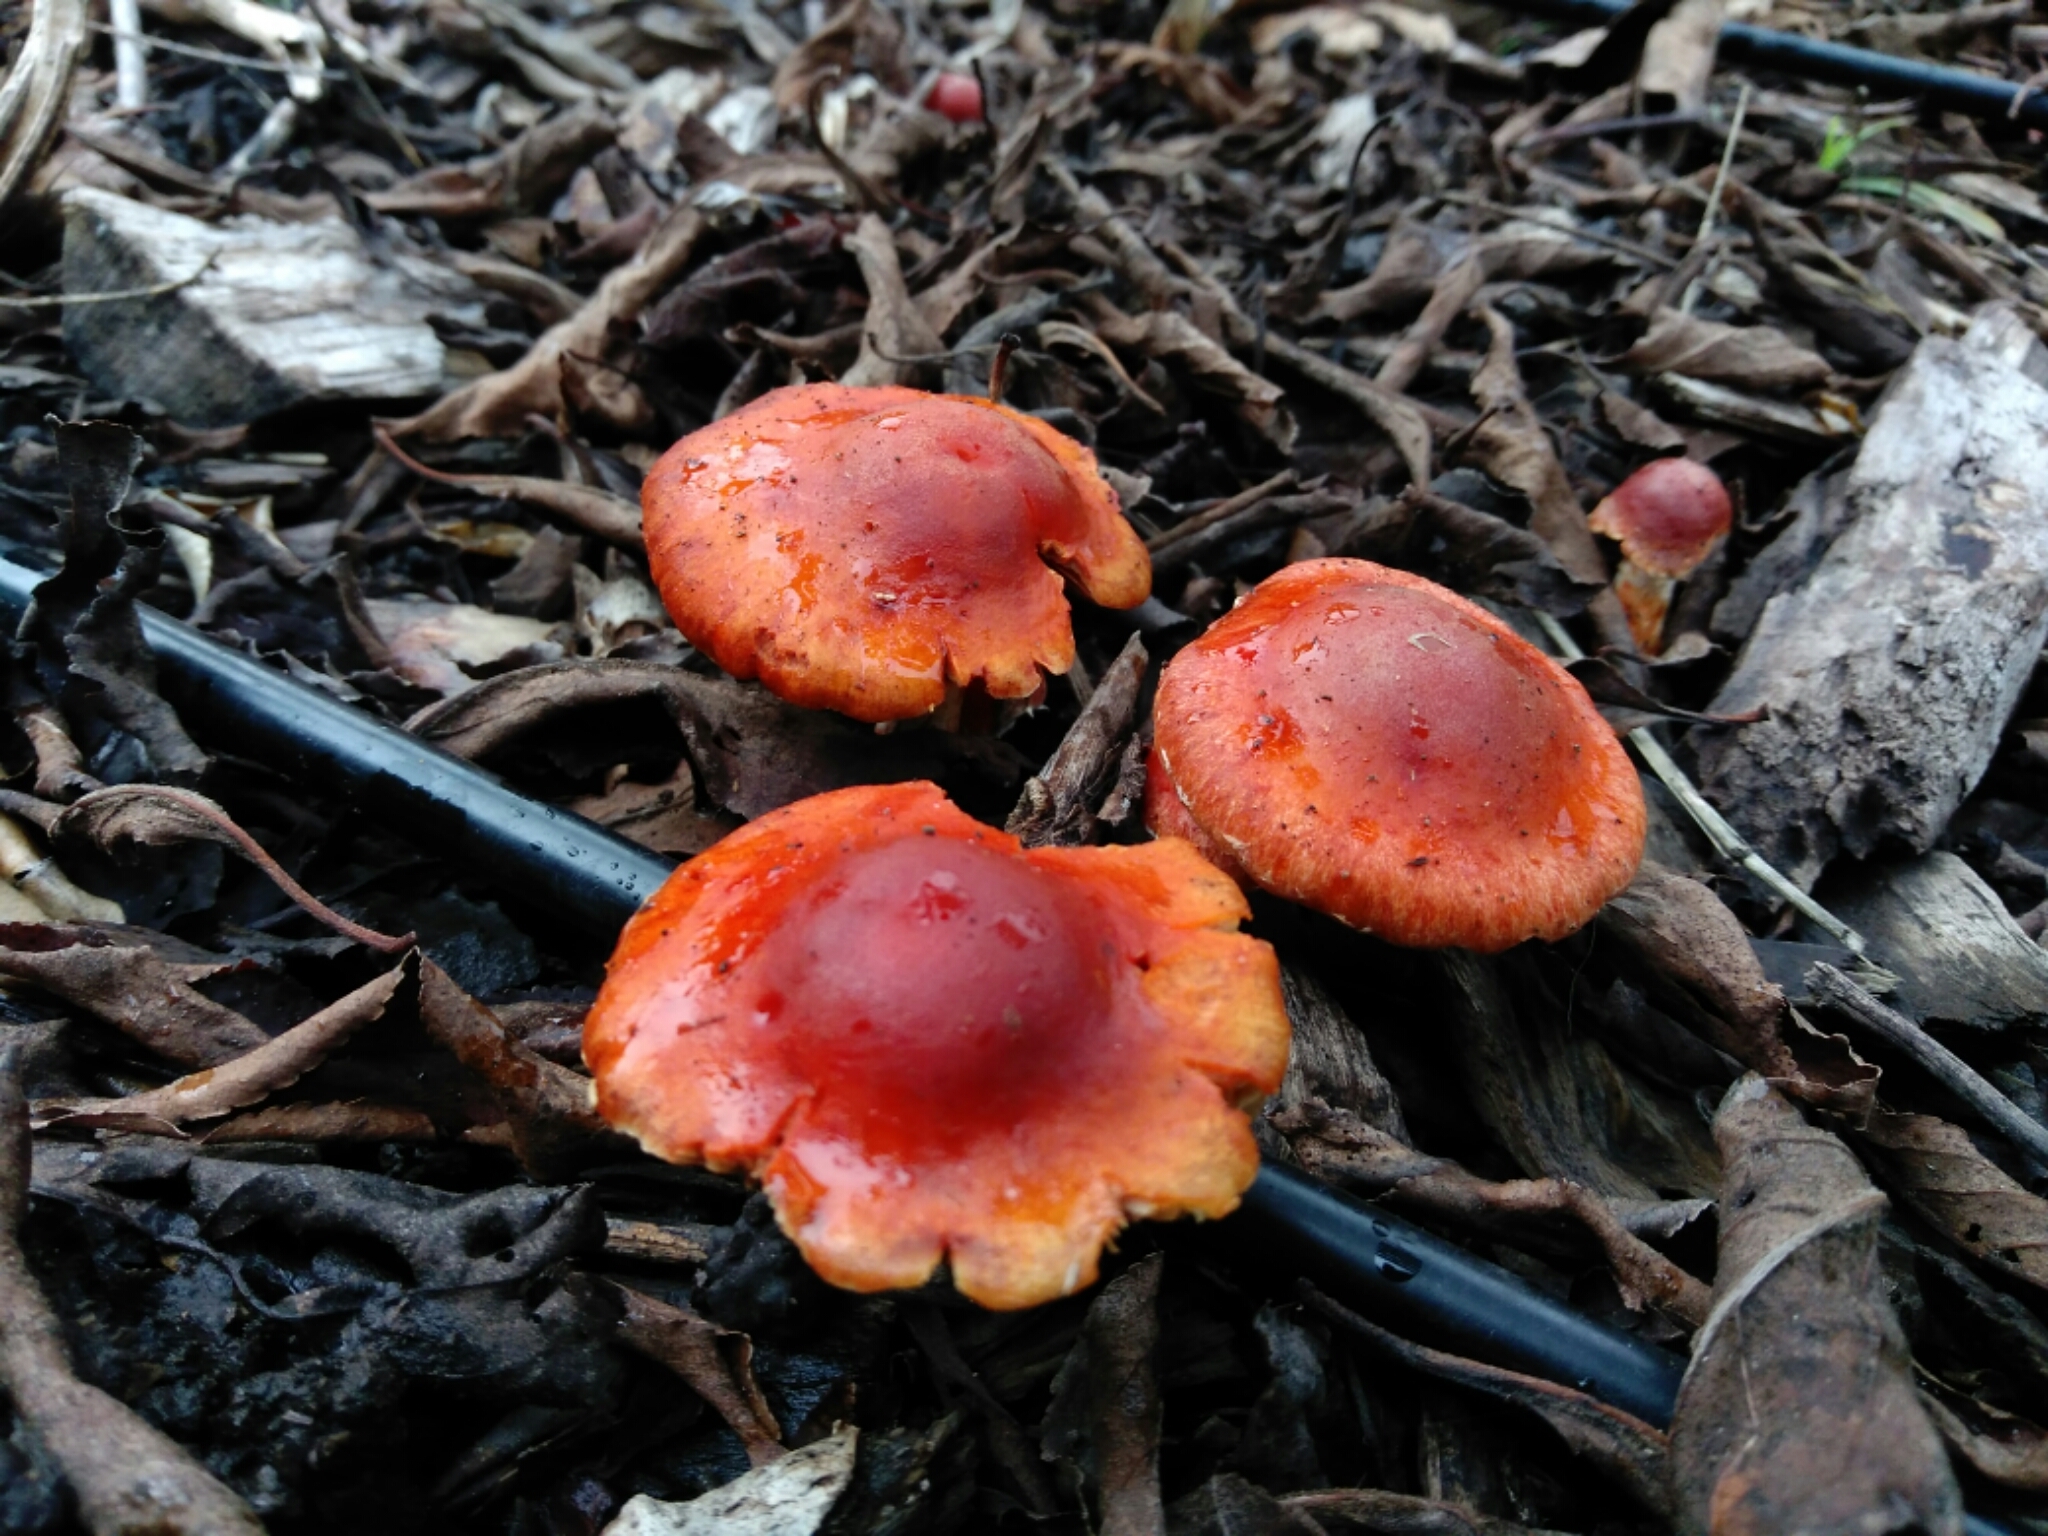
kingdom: Fungi
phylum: Basidiomycota
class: Agaricomycetes
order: Agaricales
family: Strophariaceae
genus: Leratiomyces
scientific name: Leratiomyces ceres
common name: Redlead roundhead
